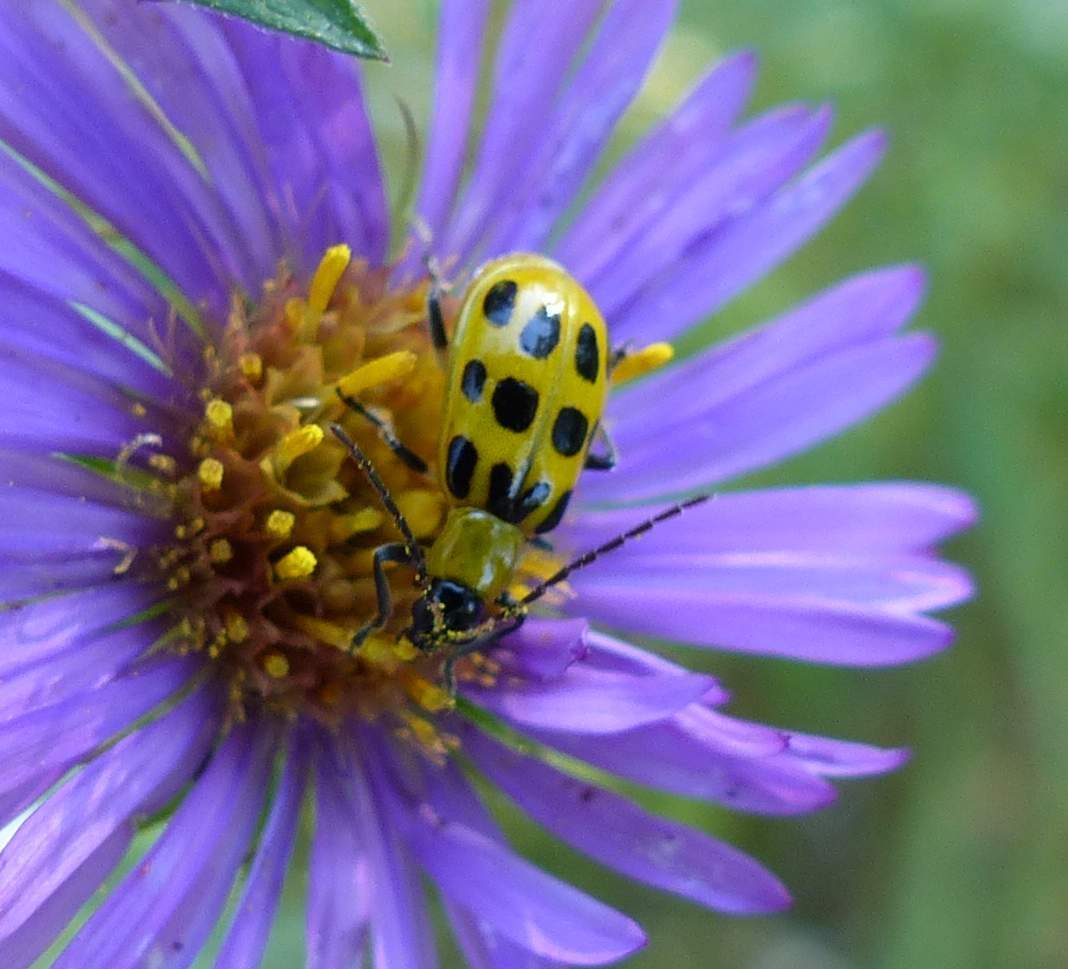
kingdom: Animalia
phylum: Arthropoda
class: Insecta
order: Coleoptera
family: Chrysomelidae
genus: Diabrotica
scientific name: Diabrotica undecimpunctata
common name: Spotted cucumber beetle
